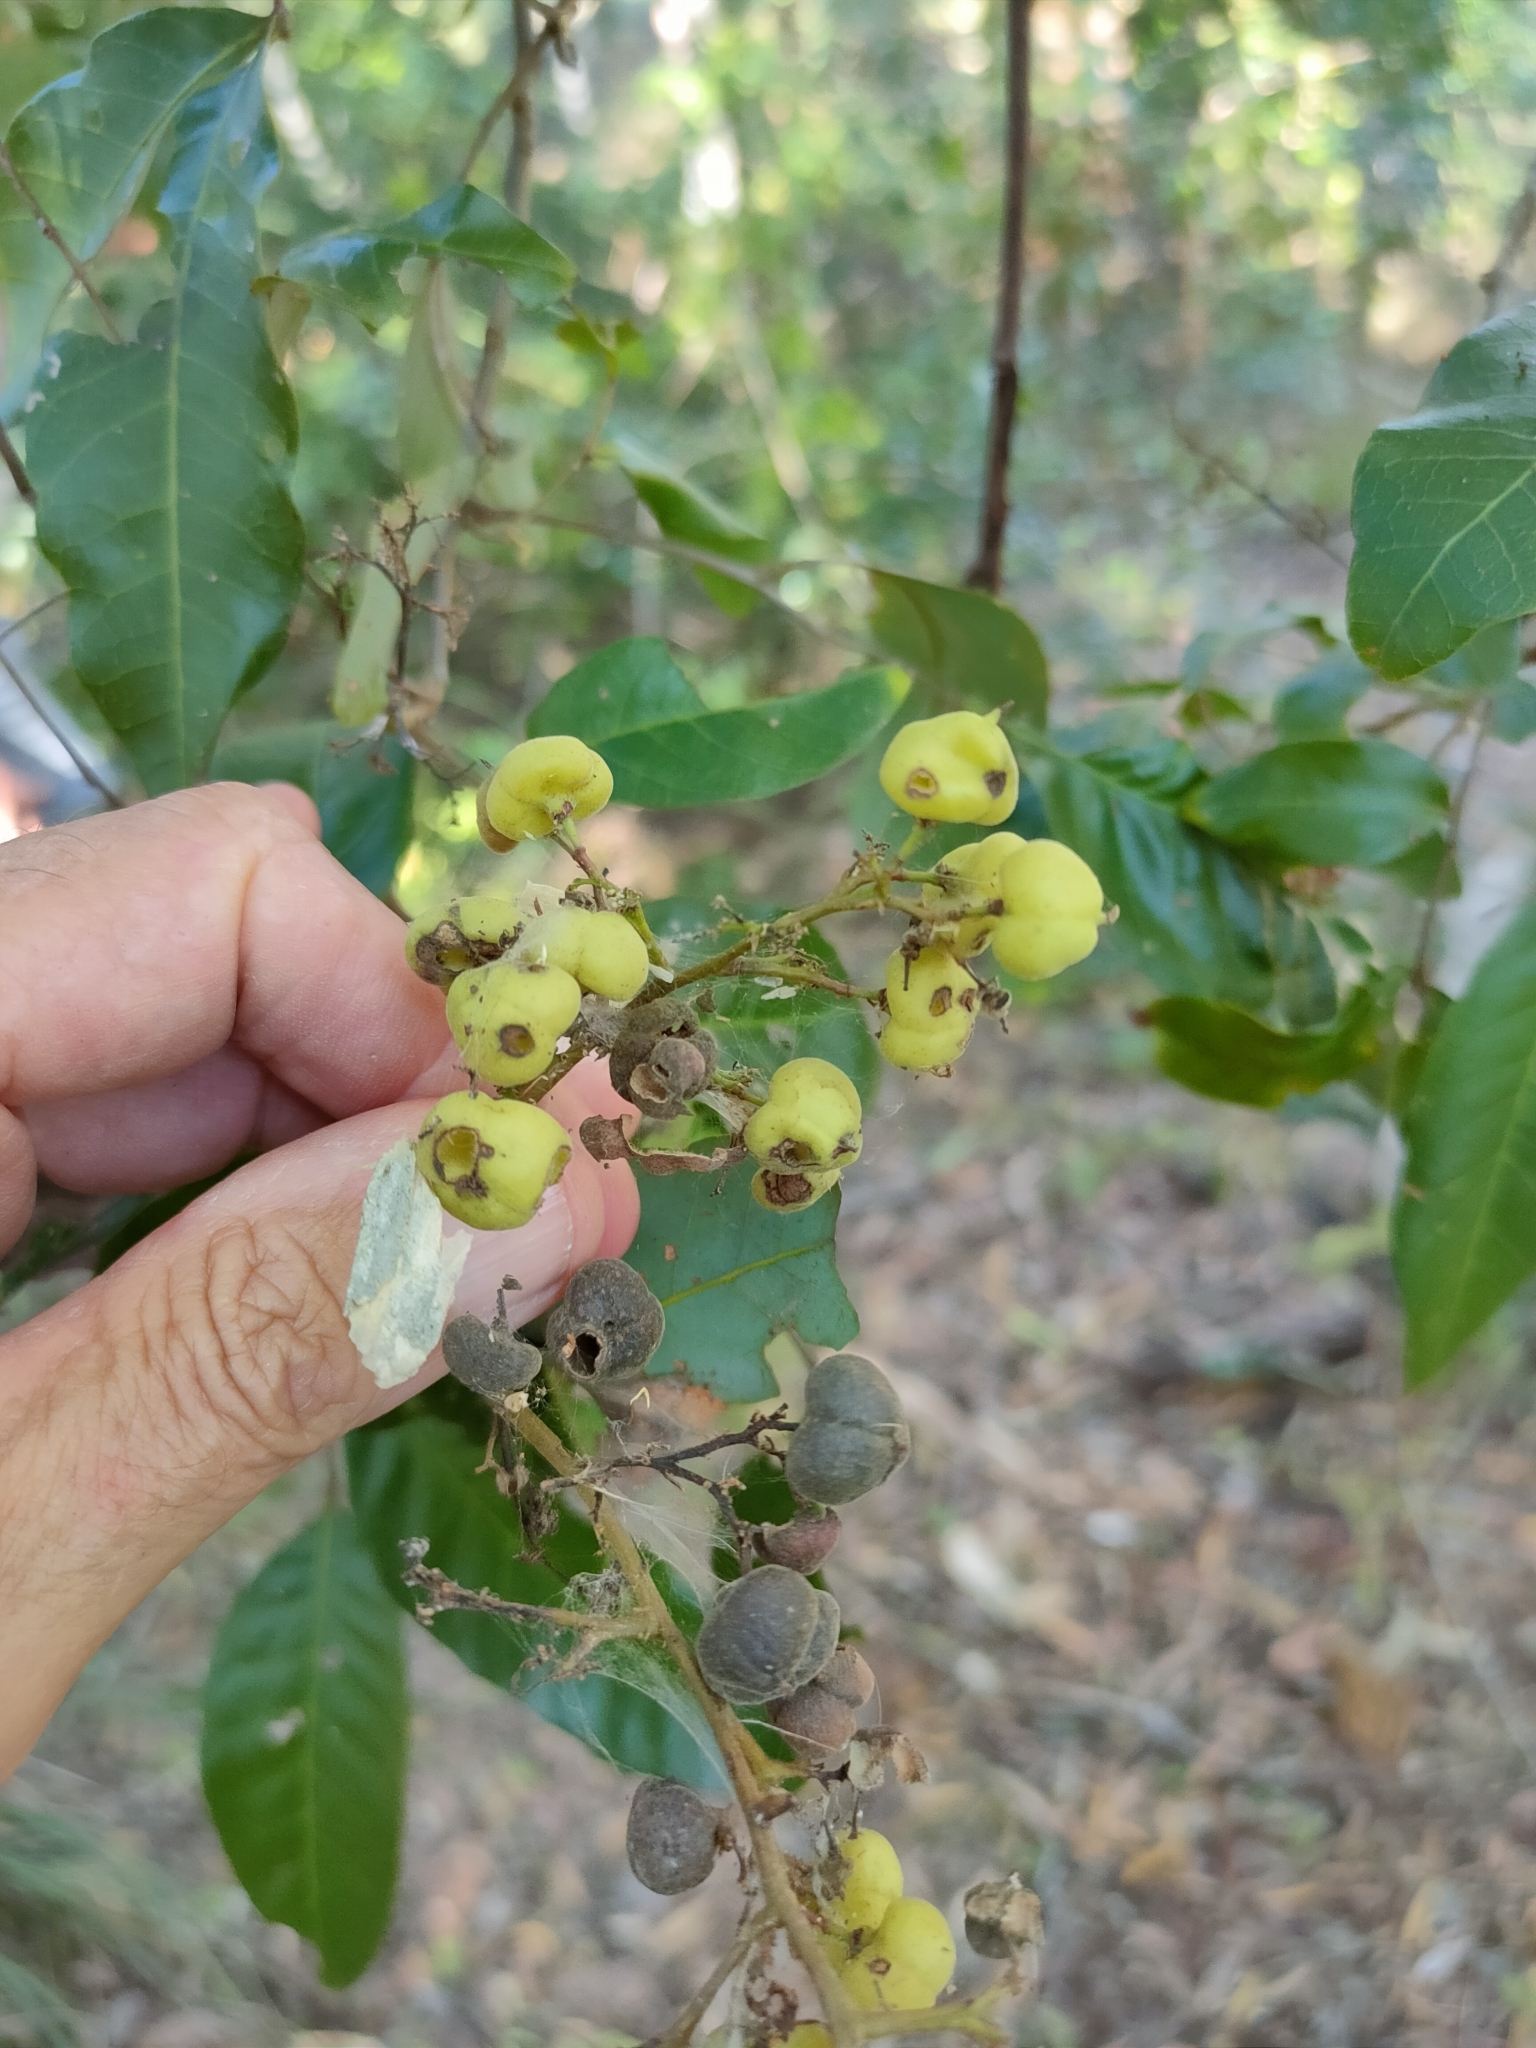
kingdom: Plantae
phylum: Tracheophyta
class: Magnoliopsida
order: Sapindales
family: Sapindaceae
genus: Alectryon
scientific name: Alectryon connatus
